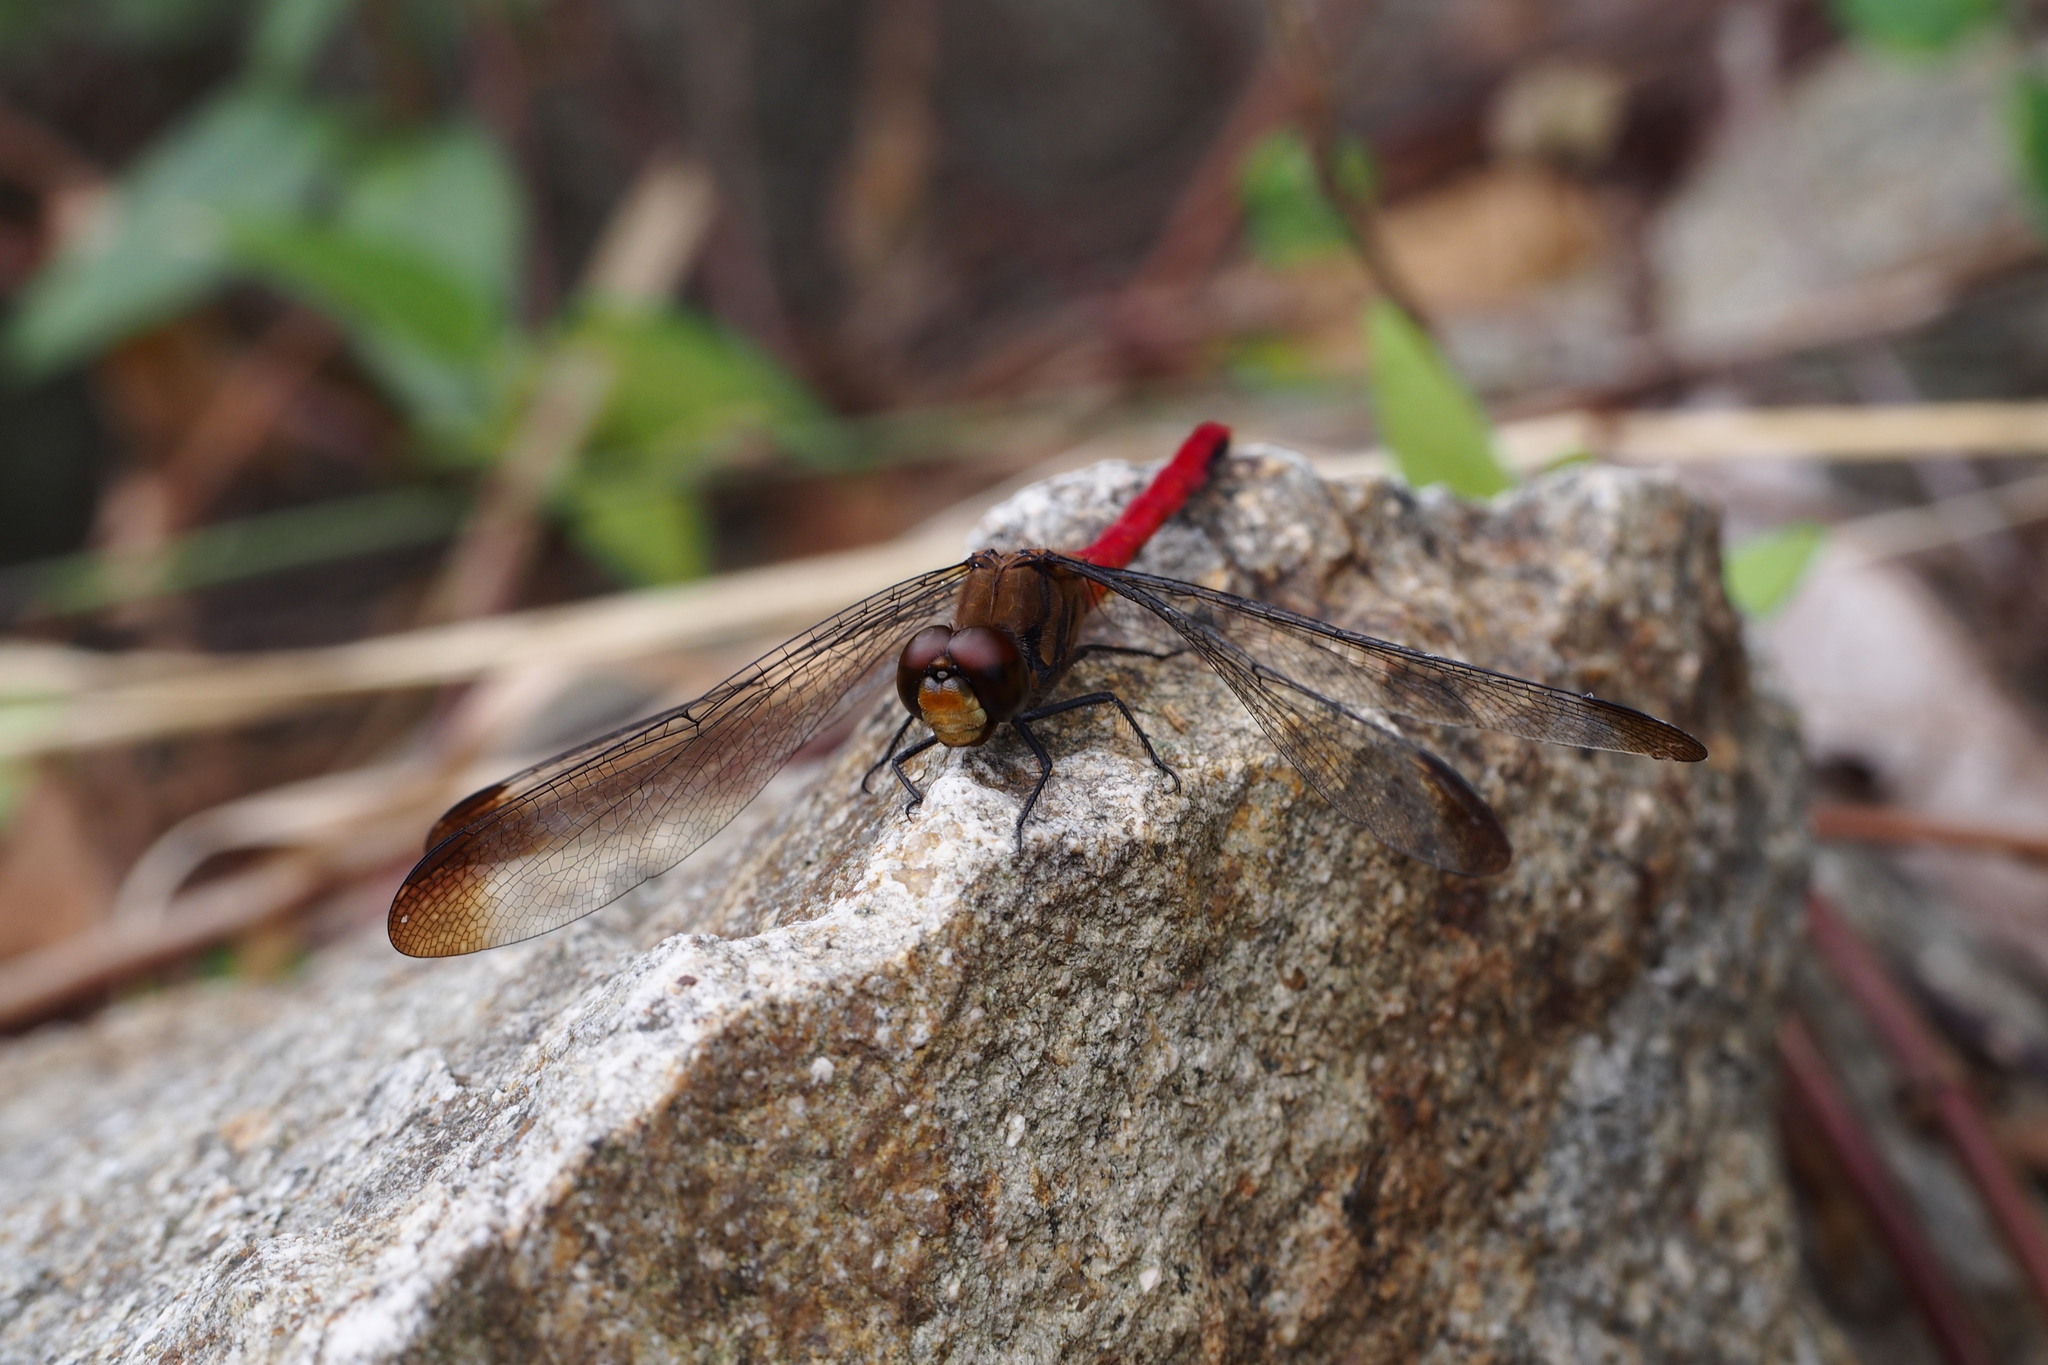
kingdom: Animalia
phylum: Arthropoda
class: Insecta
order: Odonata
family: Libellulidae
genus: Sympetrum
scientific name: Sympetrum risi
